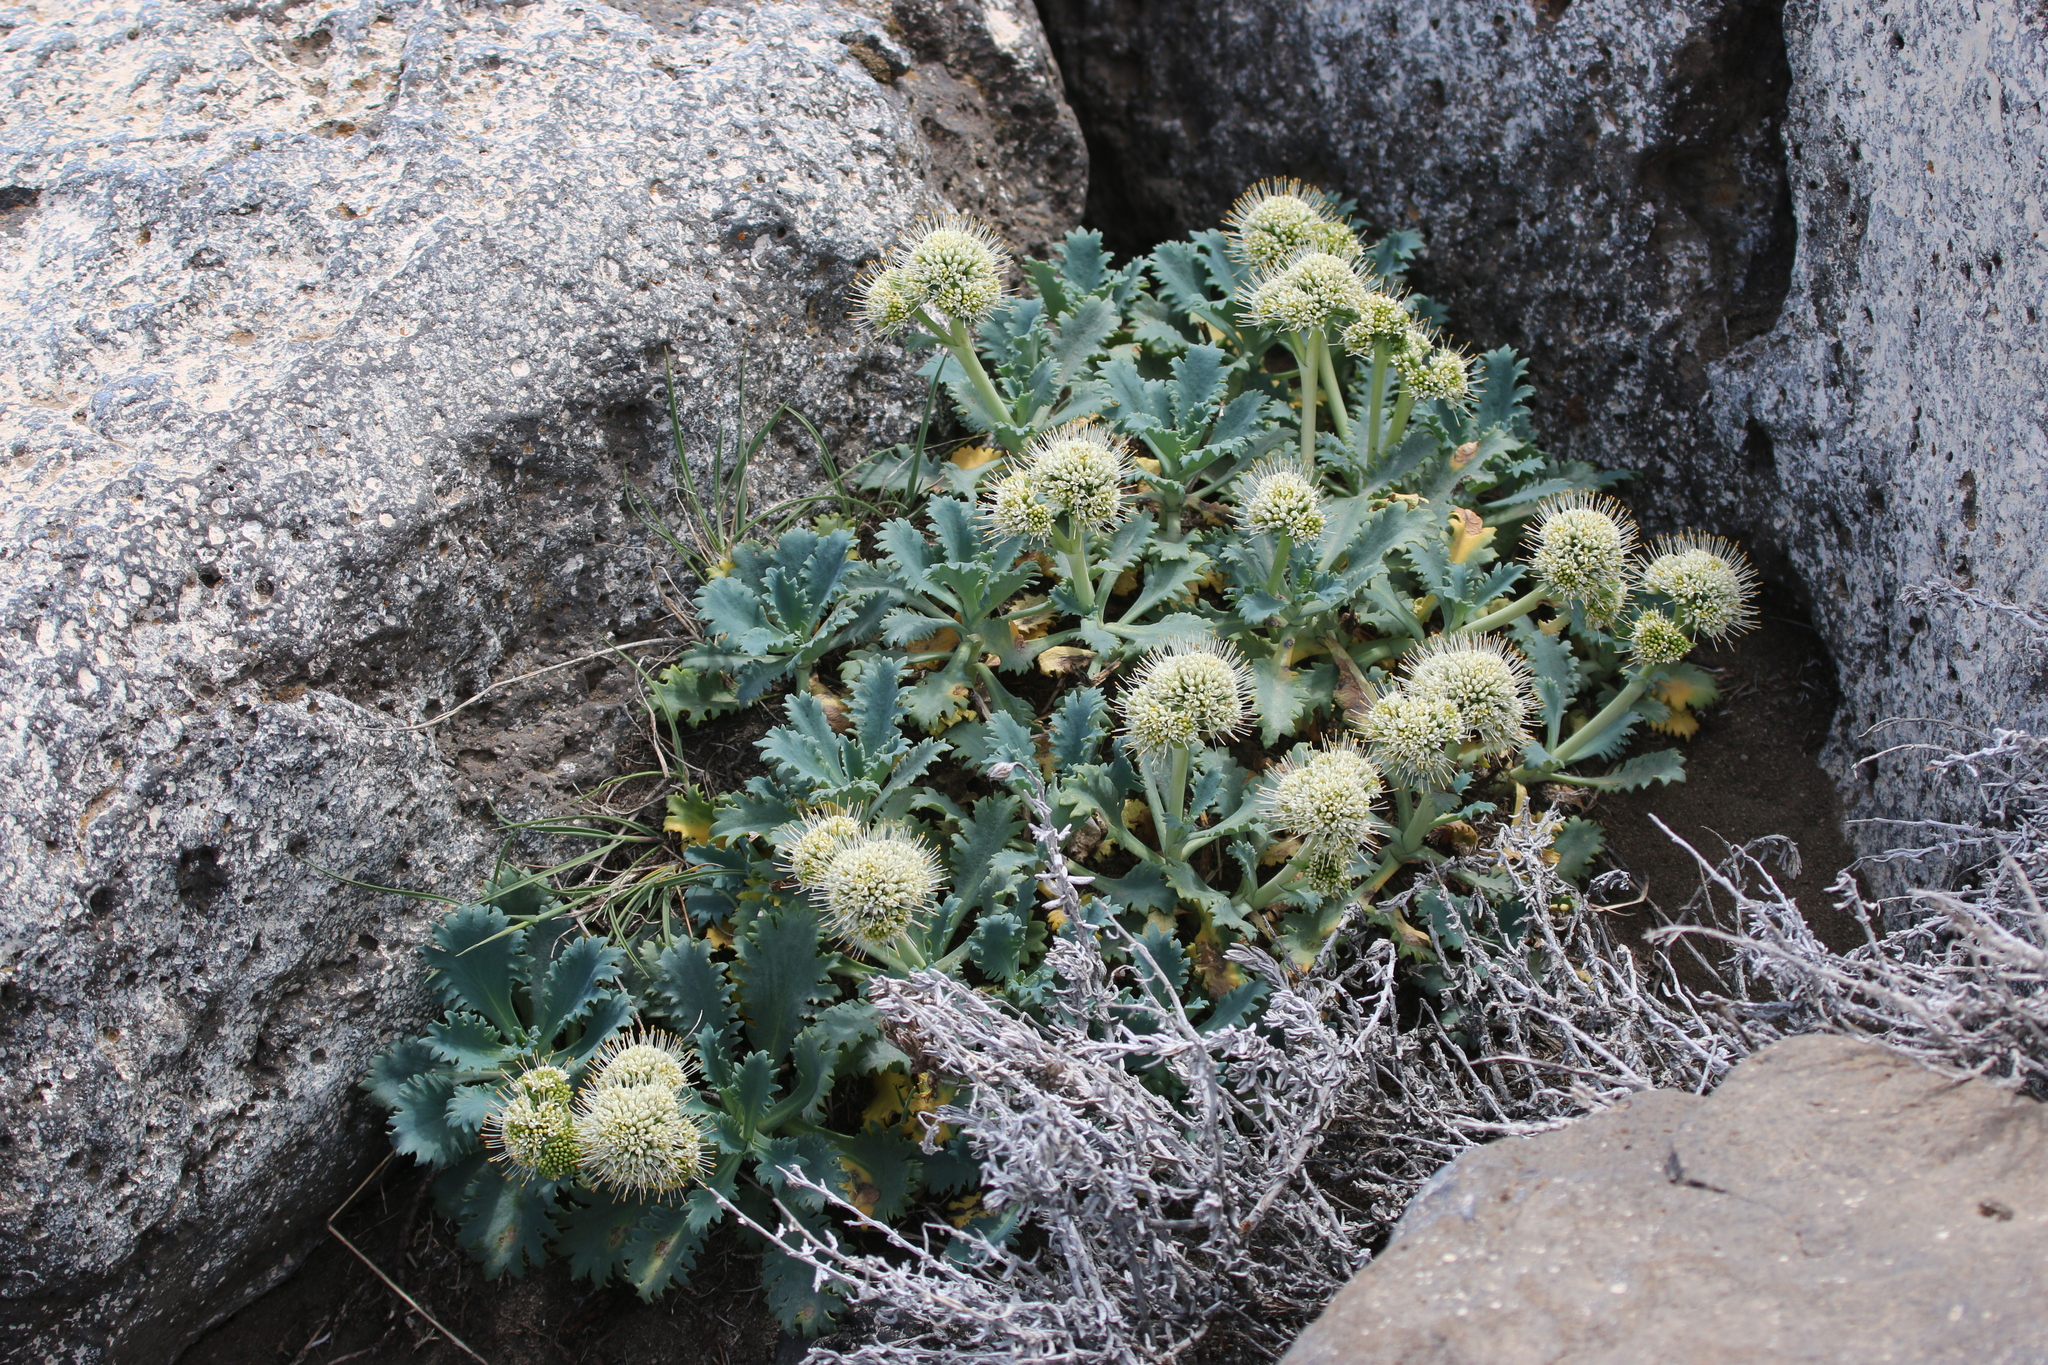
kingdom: Plantae
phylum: Tracheophyta
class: Magnoliopsida
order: Asterales
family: Calyceraceae
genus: Moschopsis
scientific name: Moschopsis ameghinoi
